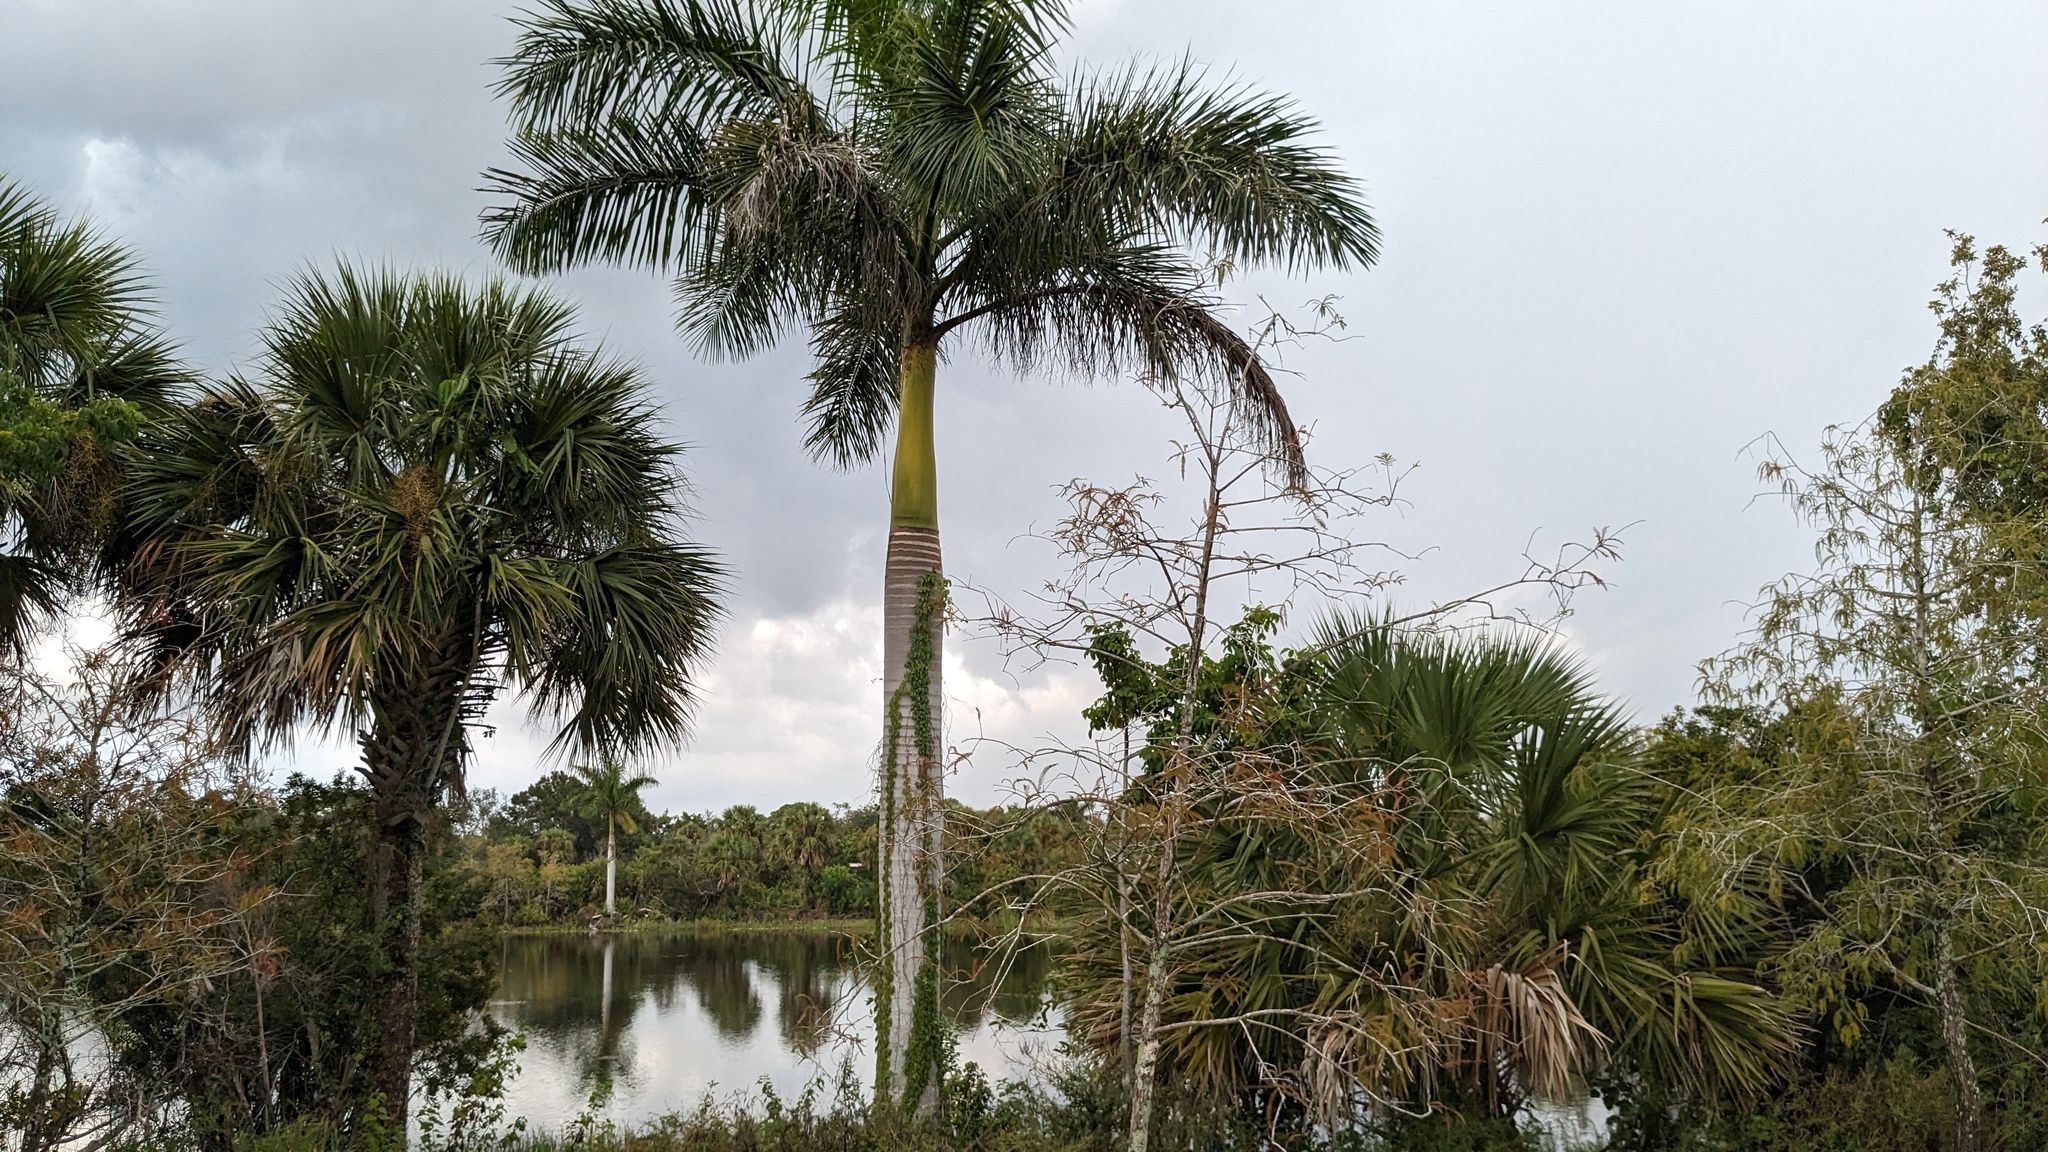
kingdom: Plantae
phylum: Tracheophyta
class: Liliopsida
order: Arecales
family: Arecaceae
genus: Roystonea
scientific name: Roystonea regia
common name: Florida royal palm
